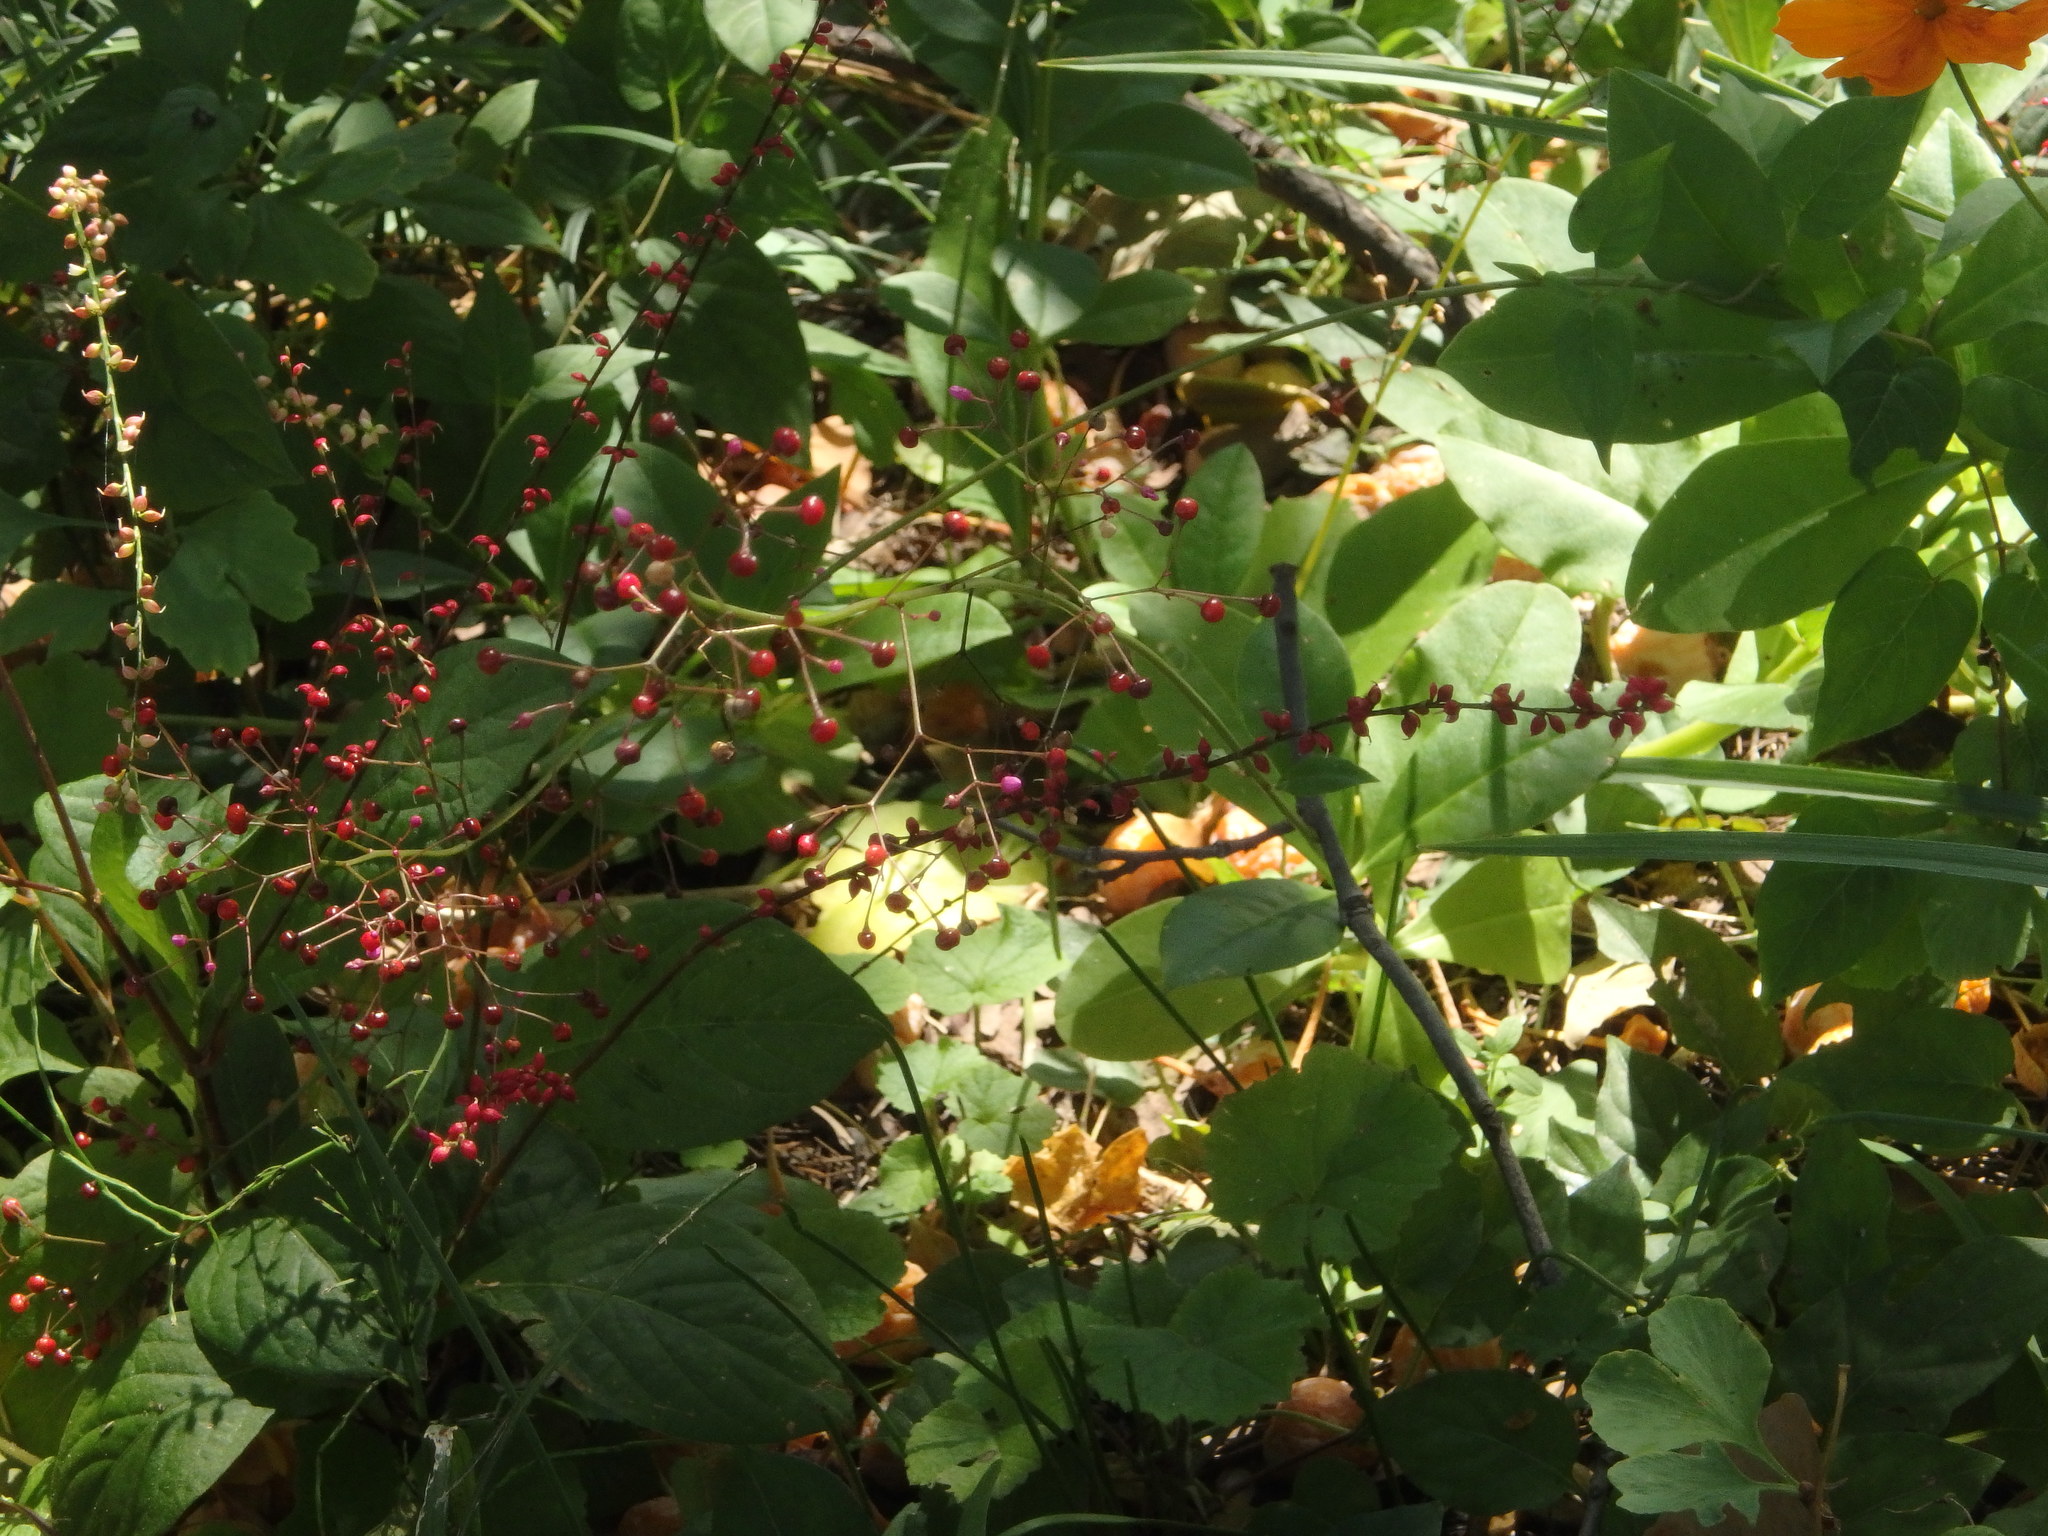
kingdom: Plantae
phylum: Tracheophyta
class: Magnoliopsida
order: Caryophyllales
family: Talinaceae
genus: Talinum
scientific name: Talinum paniculatum
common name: Jewels of opar
